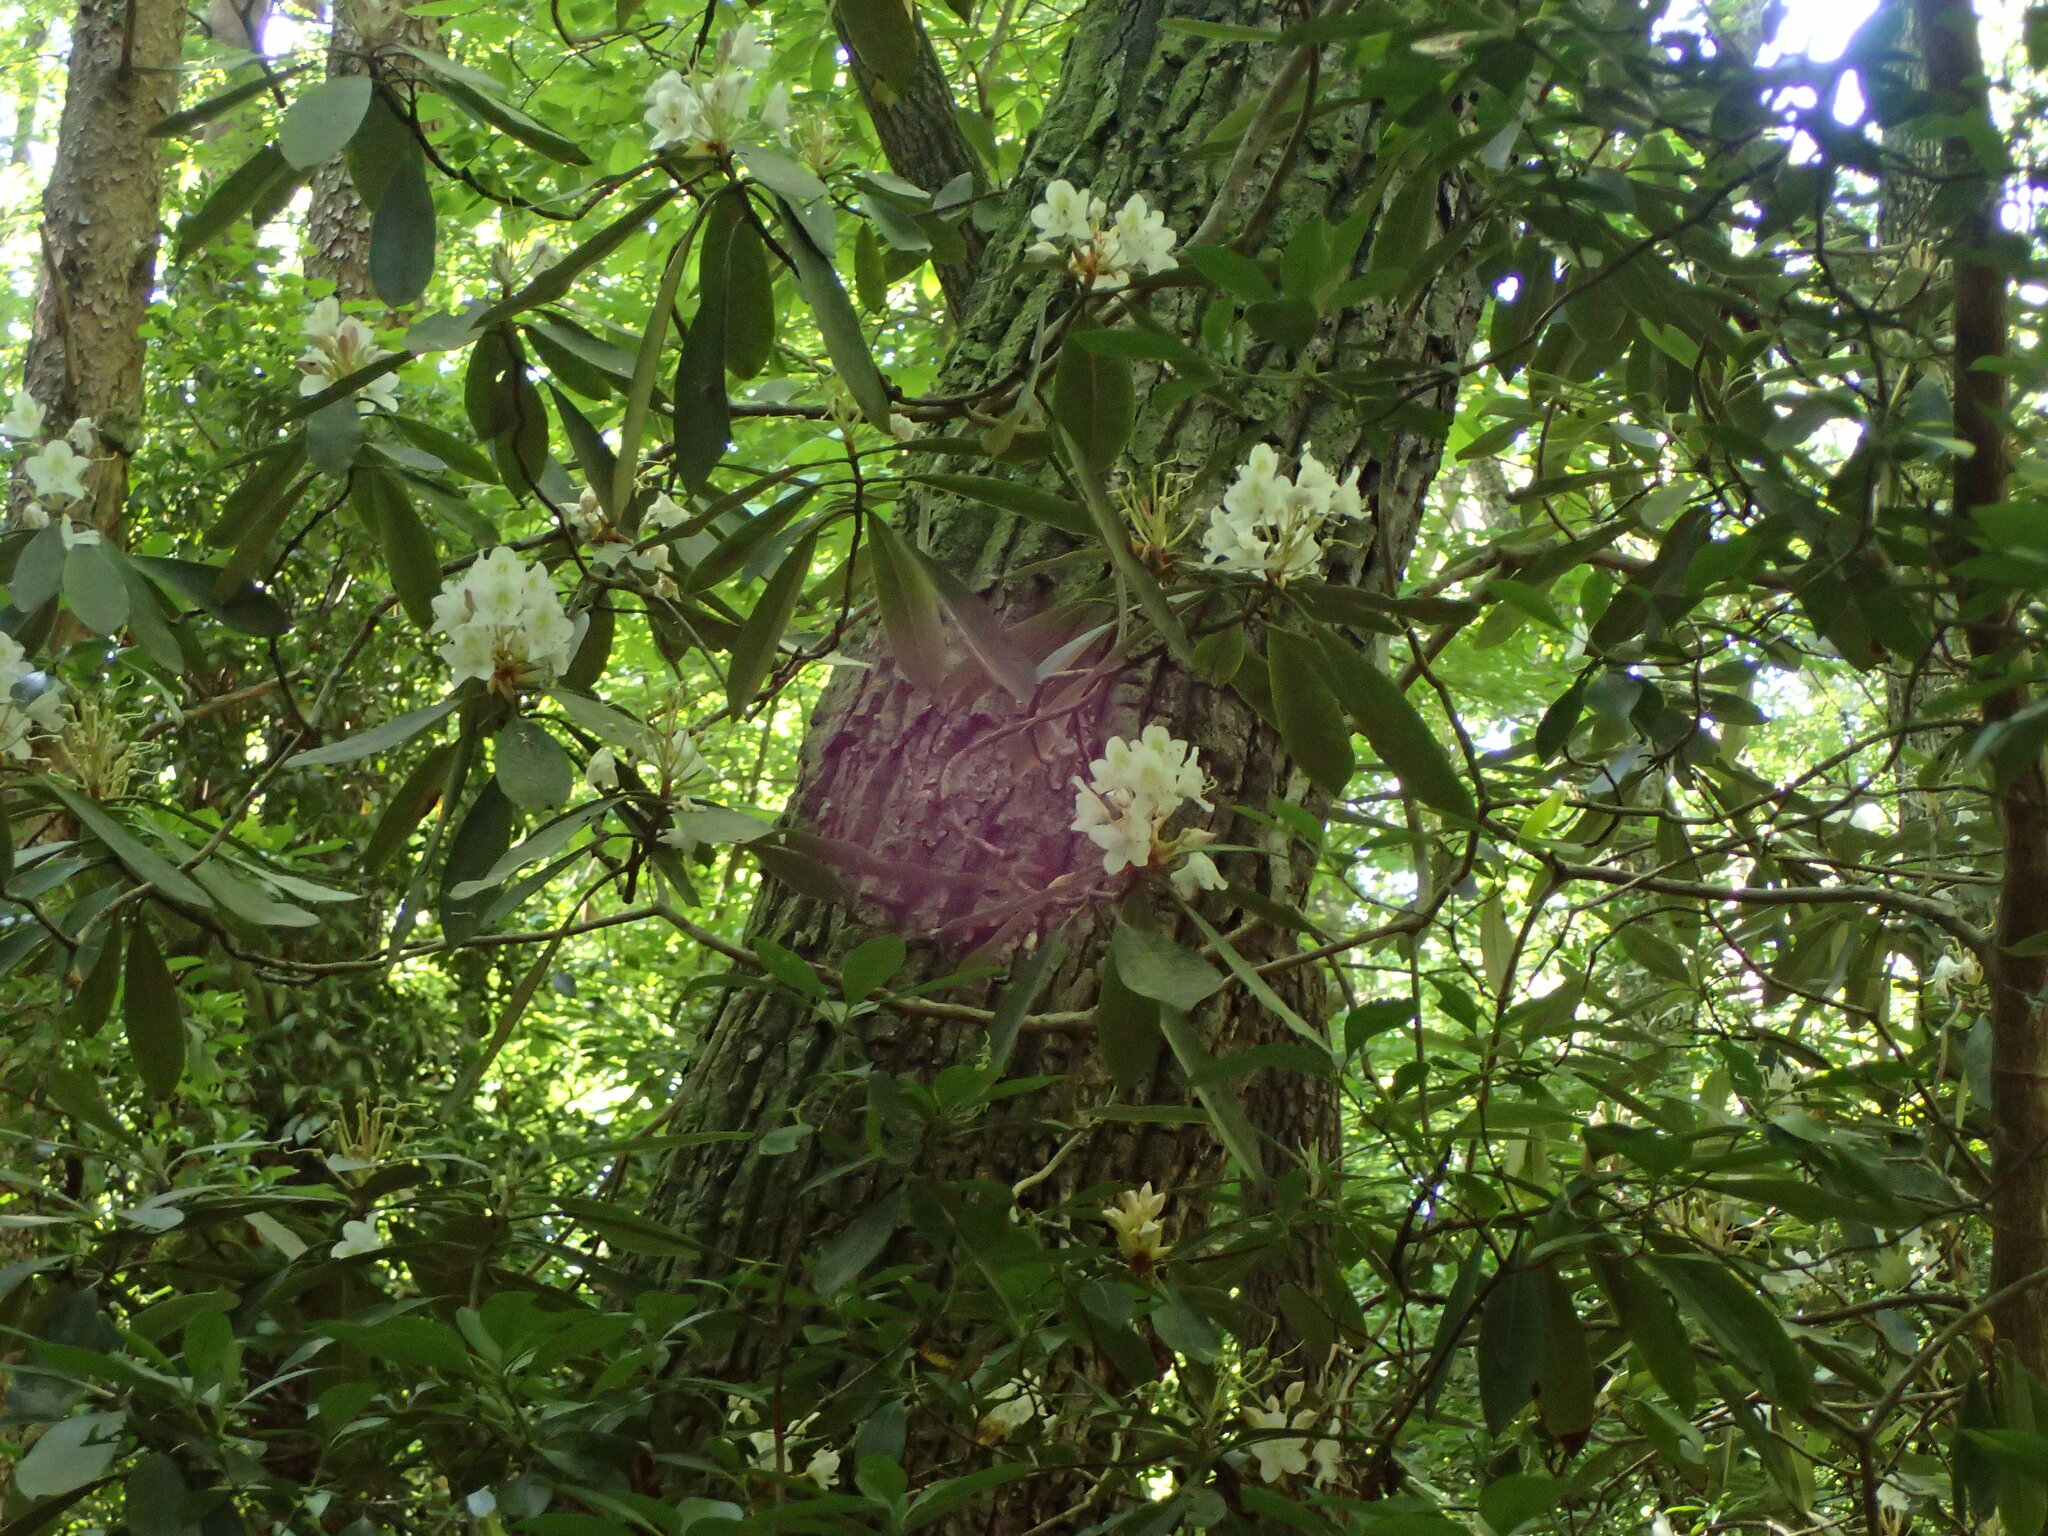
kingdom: Plantae
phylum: Tracheophyta
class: Magnoliopsida
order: Ericales
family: Ericaceae
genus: Rhododendron
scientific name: Rhododendron maximum
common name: Great rhododendron
